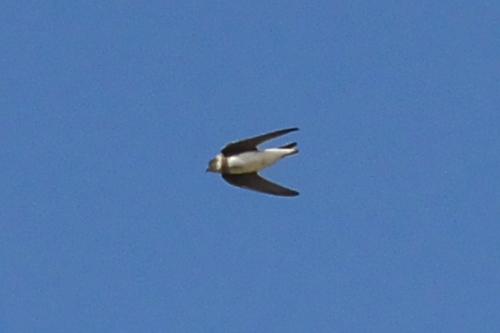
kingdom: Animalia
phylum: Chordata
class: Aves
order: Passeriformes
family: Hirundinidae
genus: Riparia
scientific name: Riparia riparia
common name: Sand martin
